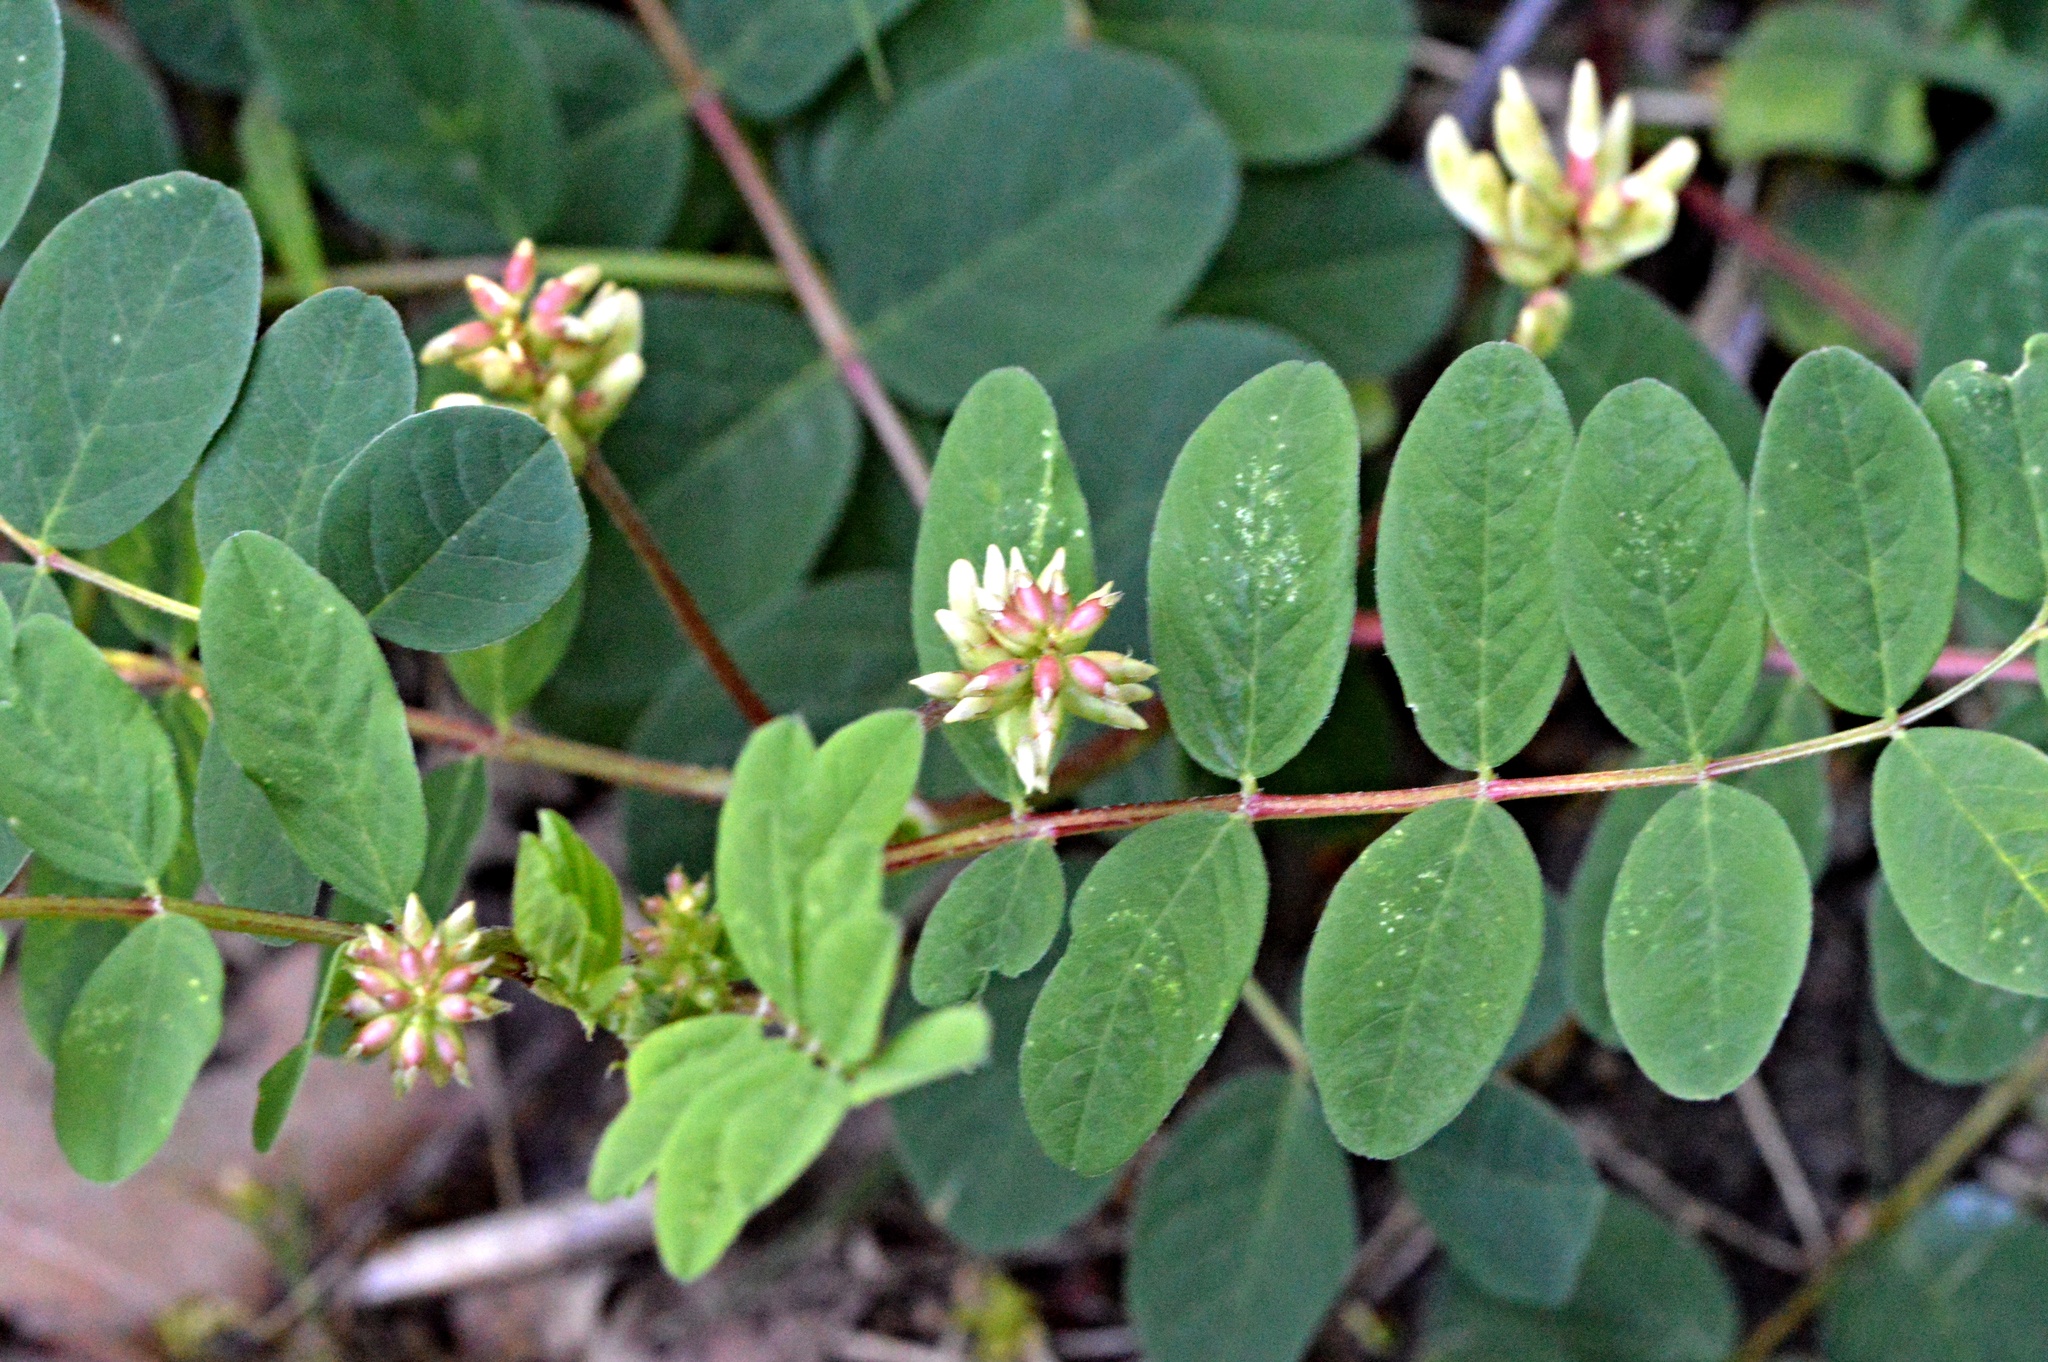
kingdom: Plantae
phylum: Tracheophyta
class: Magnoliopsida
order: Fabales
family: Fabaceae
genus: Astragalus
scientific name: Astragalus glycyphyllos
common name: Wild liquorice
